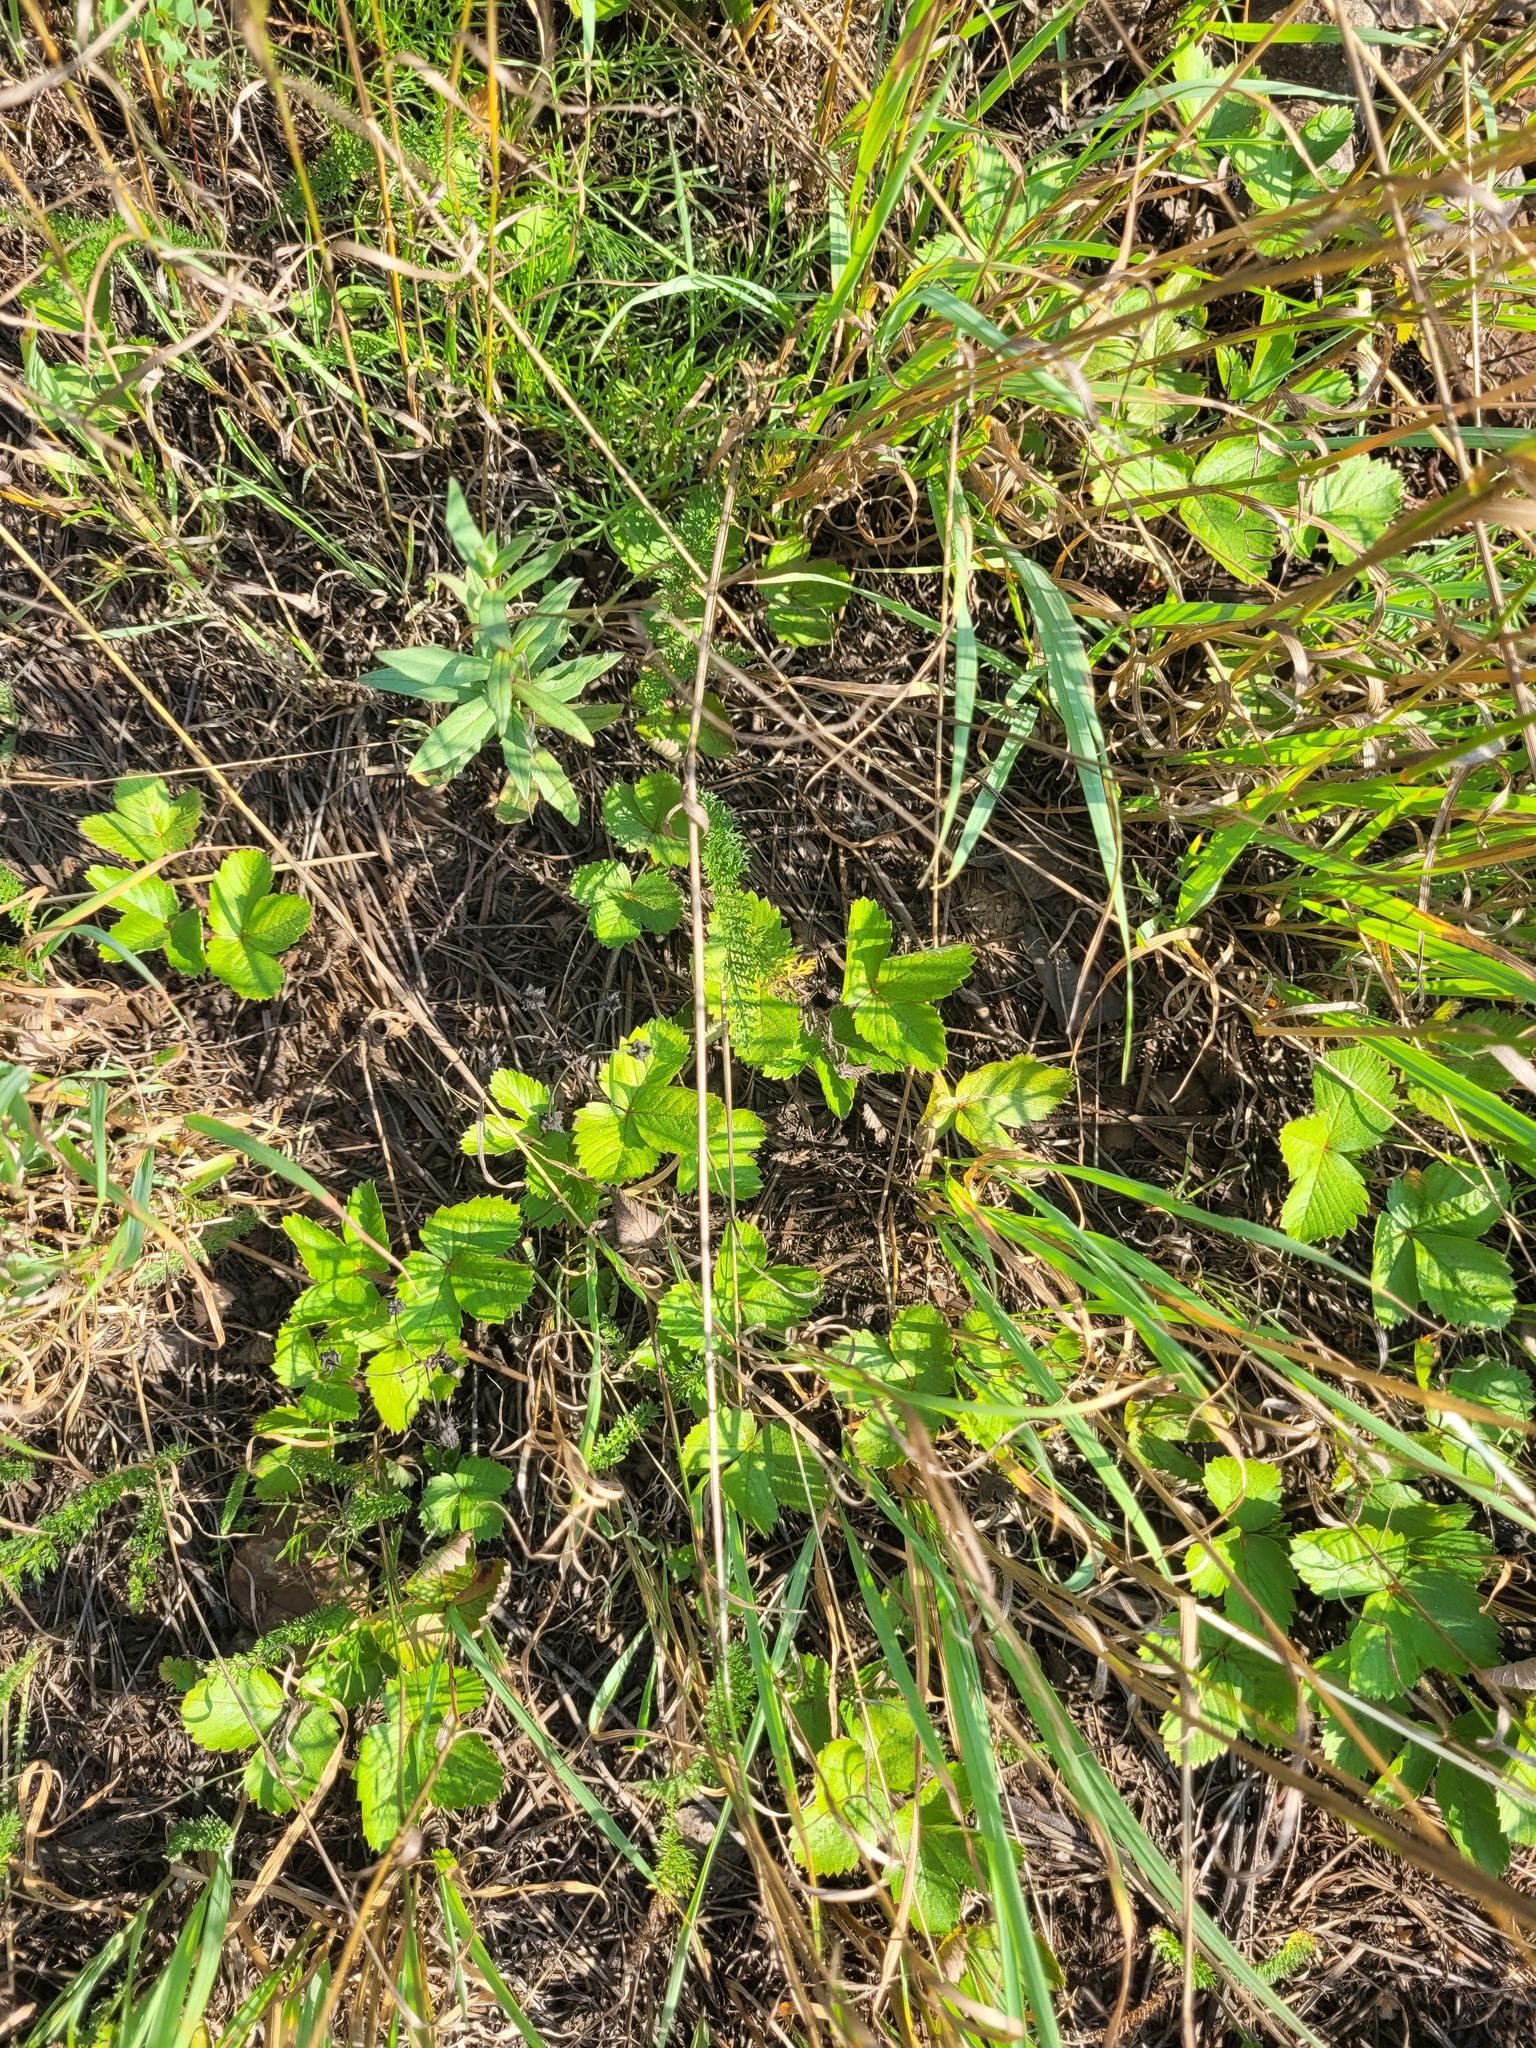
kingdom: Plantae
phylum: Tracheophyta
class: Magnoliopsida
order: Rosales
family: Rosaceae
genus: Fragaria
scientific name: Fragaria vesca
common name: Wild strawberry
